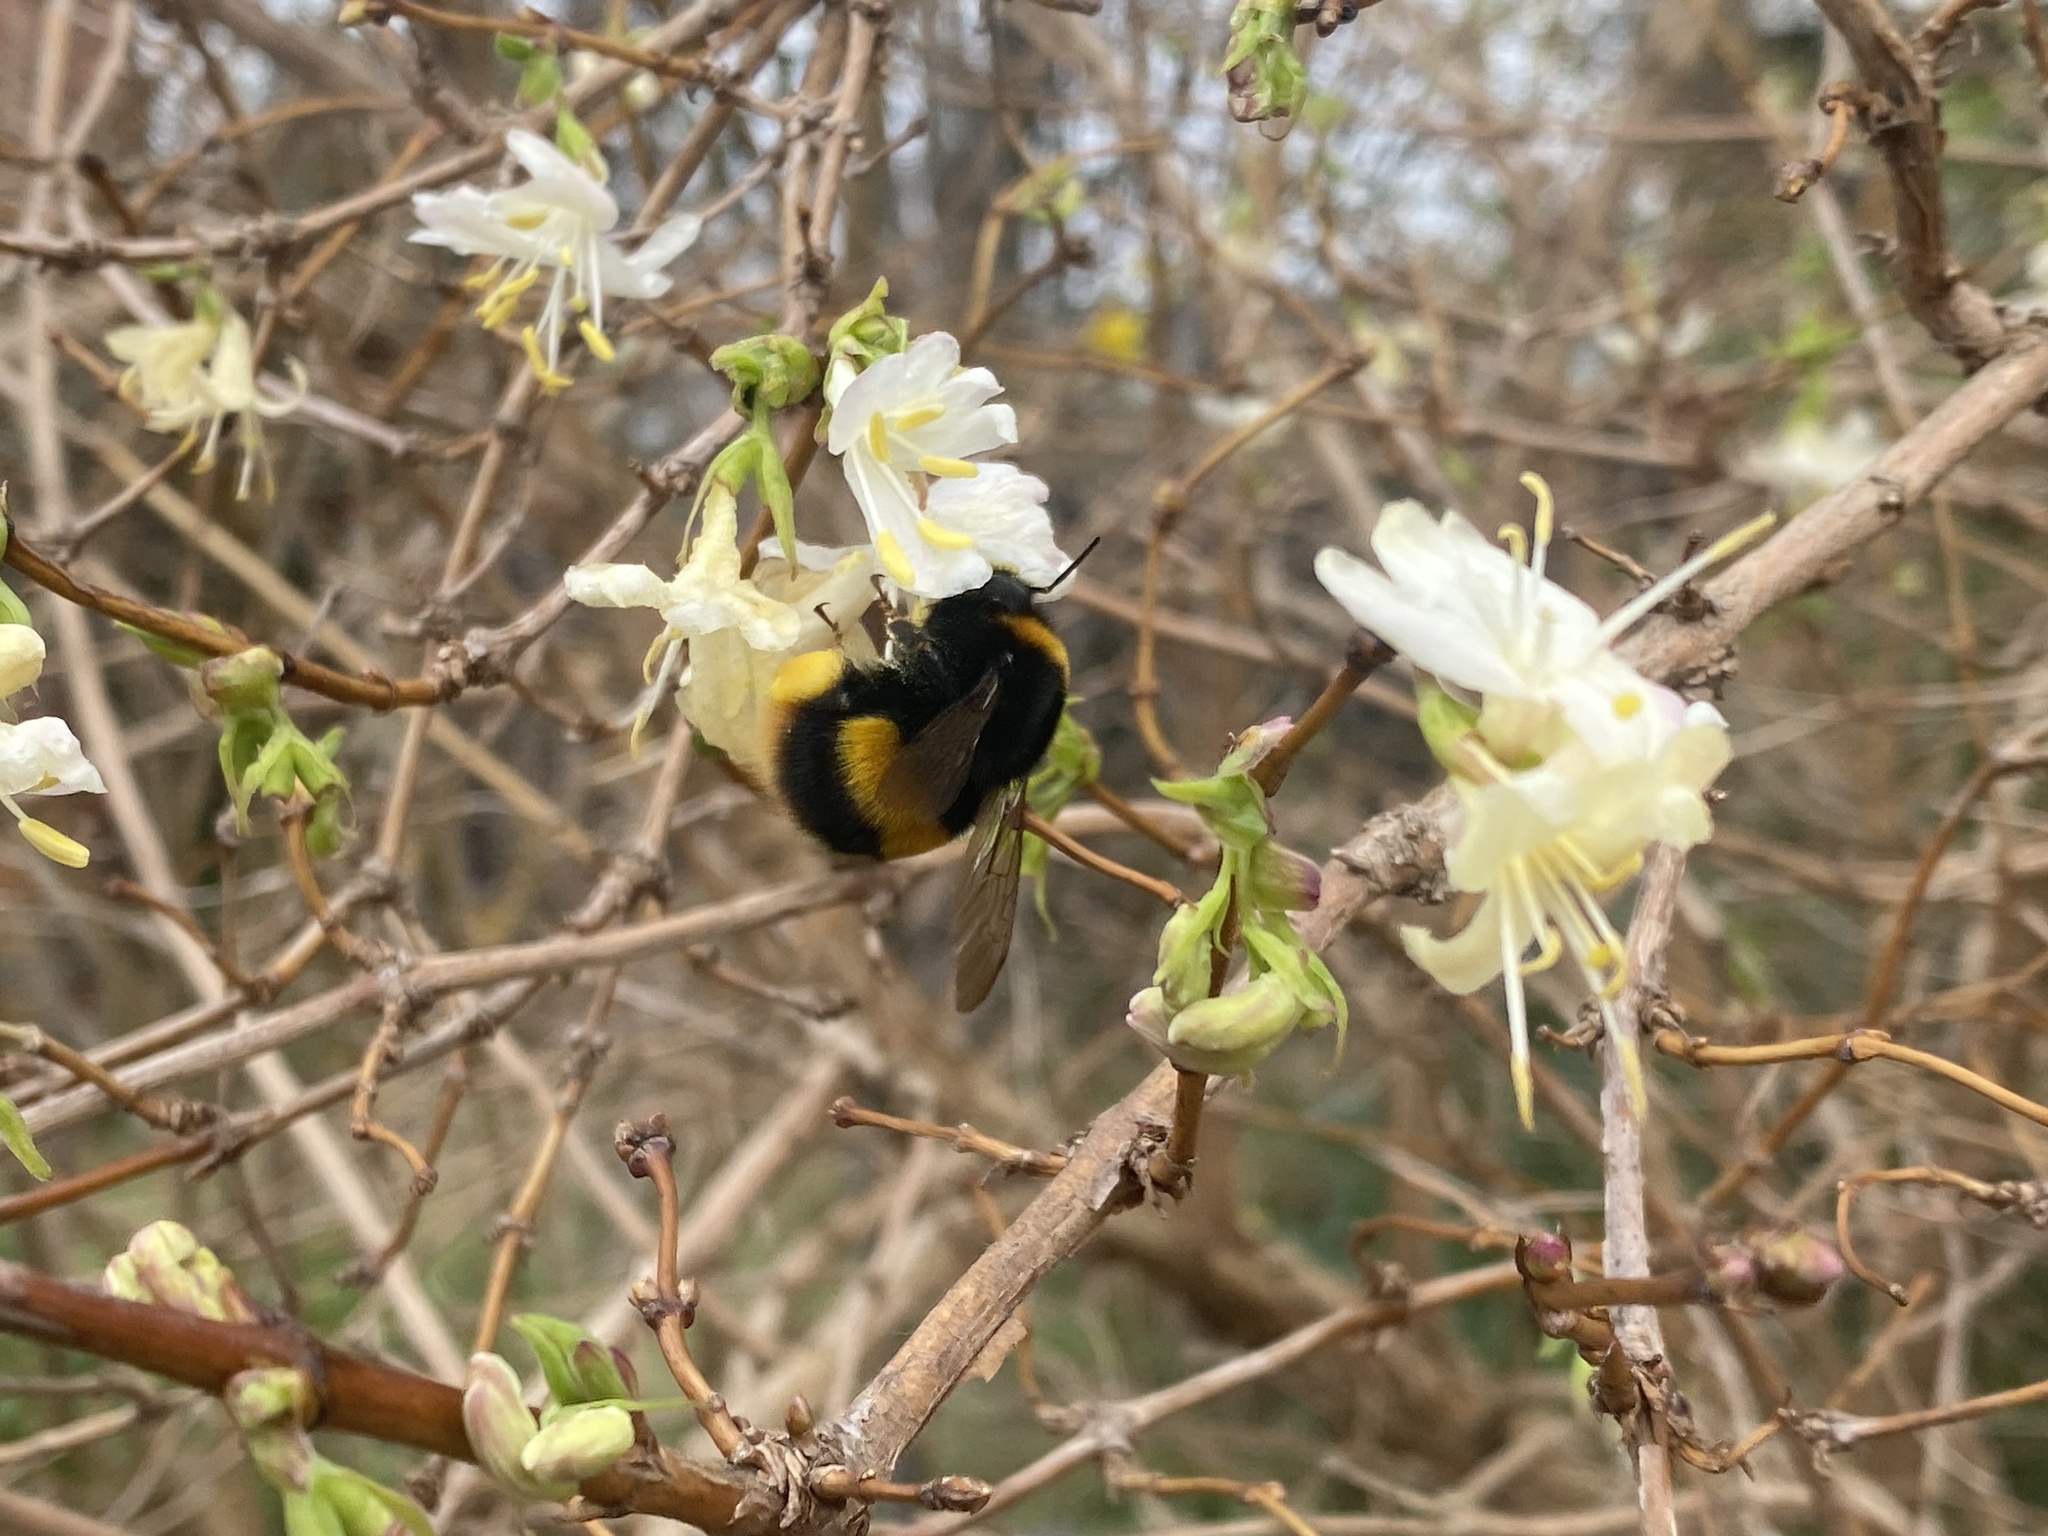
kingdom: Animalia
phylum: Arthropoda
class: Insecta
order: Hymenoptera
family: Apidae
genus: Bombus
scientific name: Bombus terrestris
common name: Buff-tailed bumblebee
